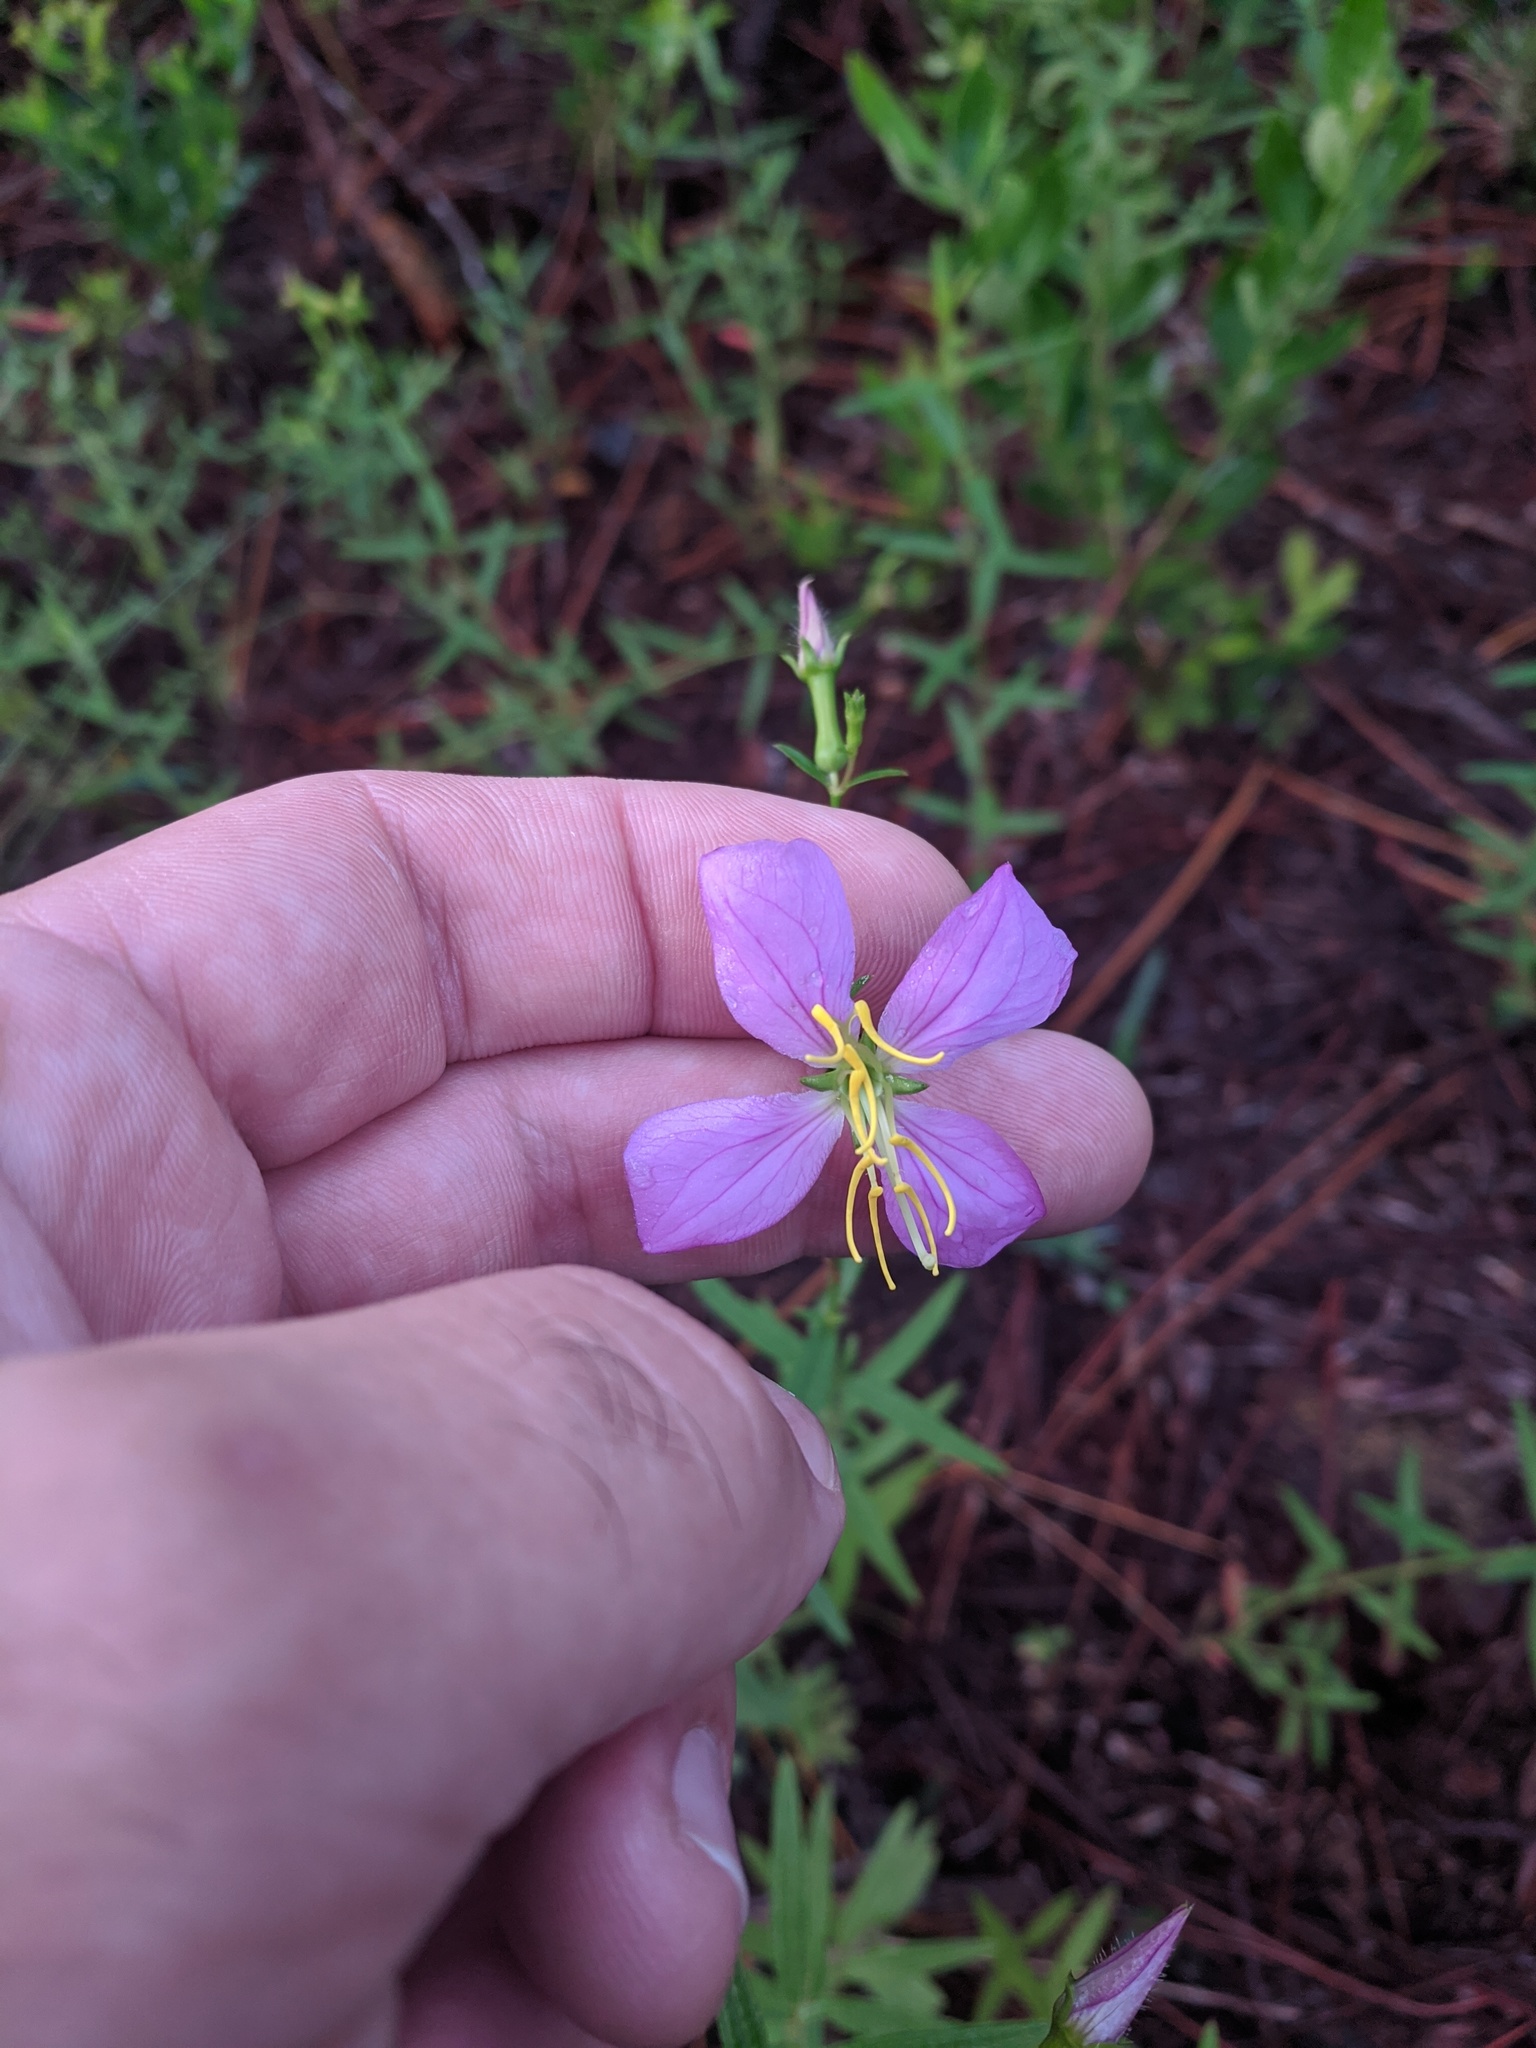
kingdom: Plantae
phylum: Tracheophyta
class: Magnoliopsida
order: Myrtales
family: Melastomataceae
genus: Rhexia
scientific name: Rhexia nashii
